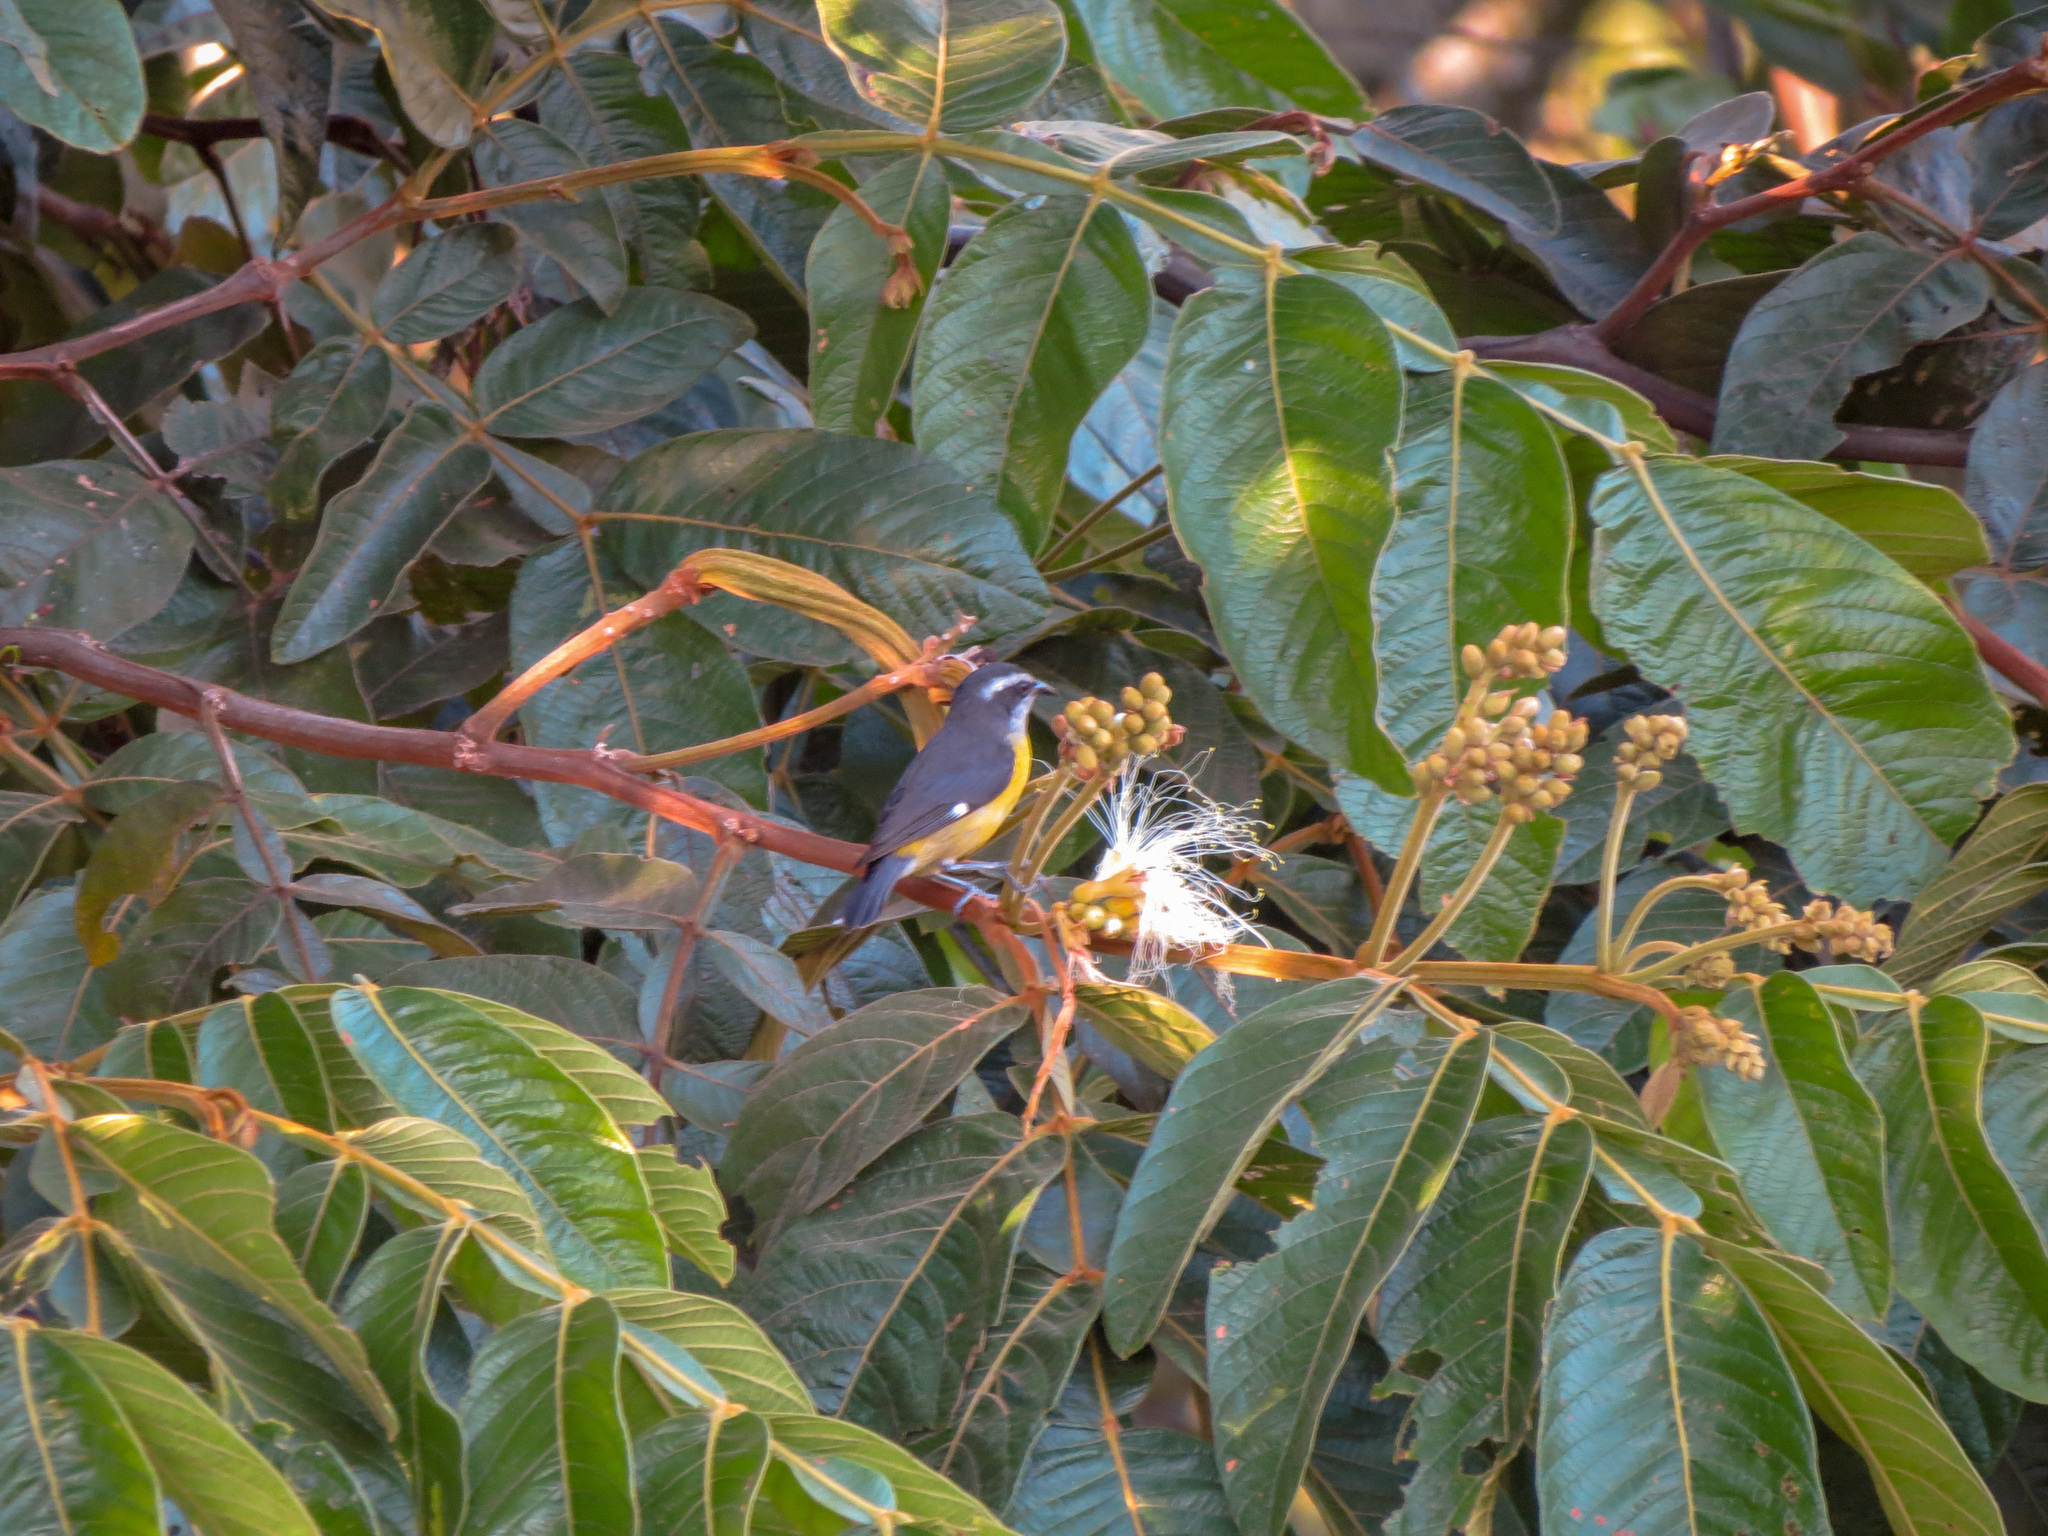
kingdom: Animalia
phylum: Chordata
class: Aves
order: Passeriformes
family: Thraupidae
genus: Coereba
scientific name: Coereba flaveola
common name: Bananaquit
